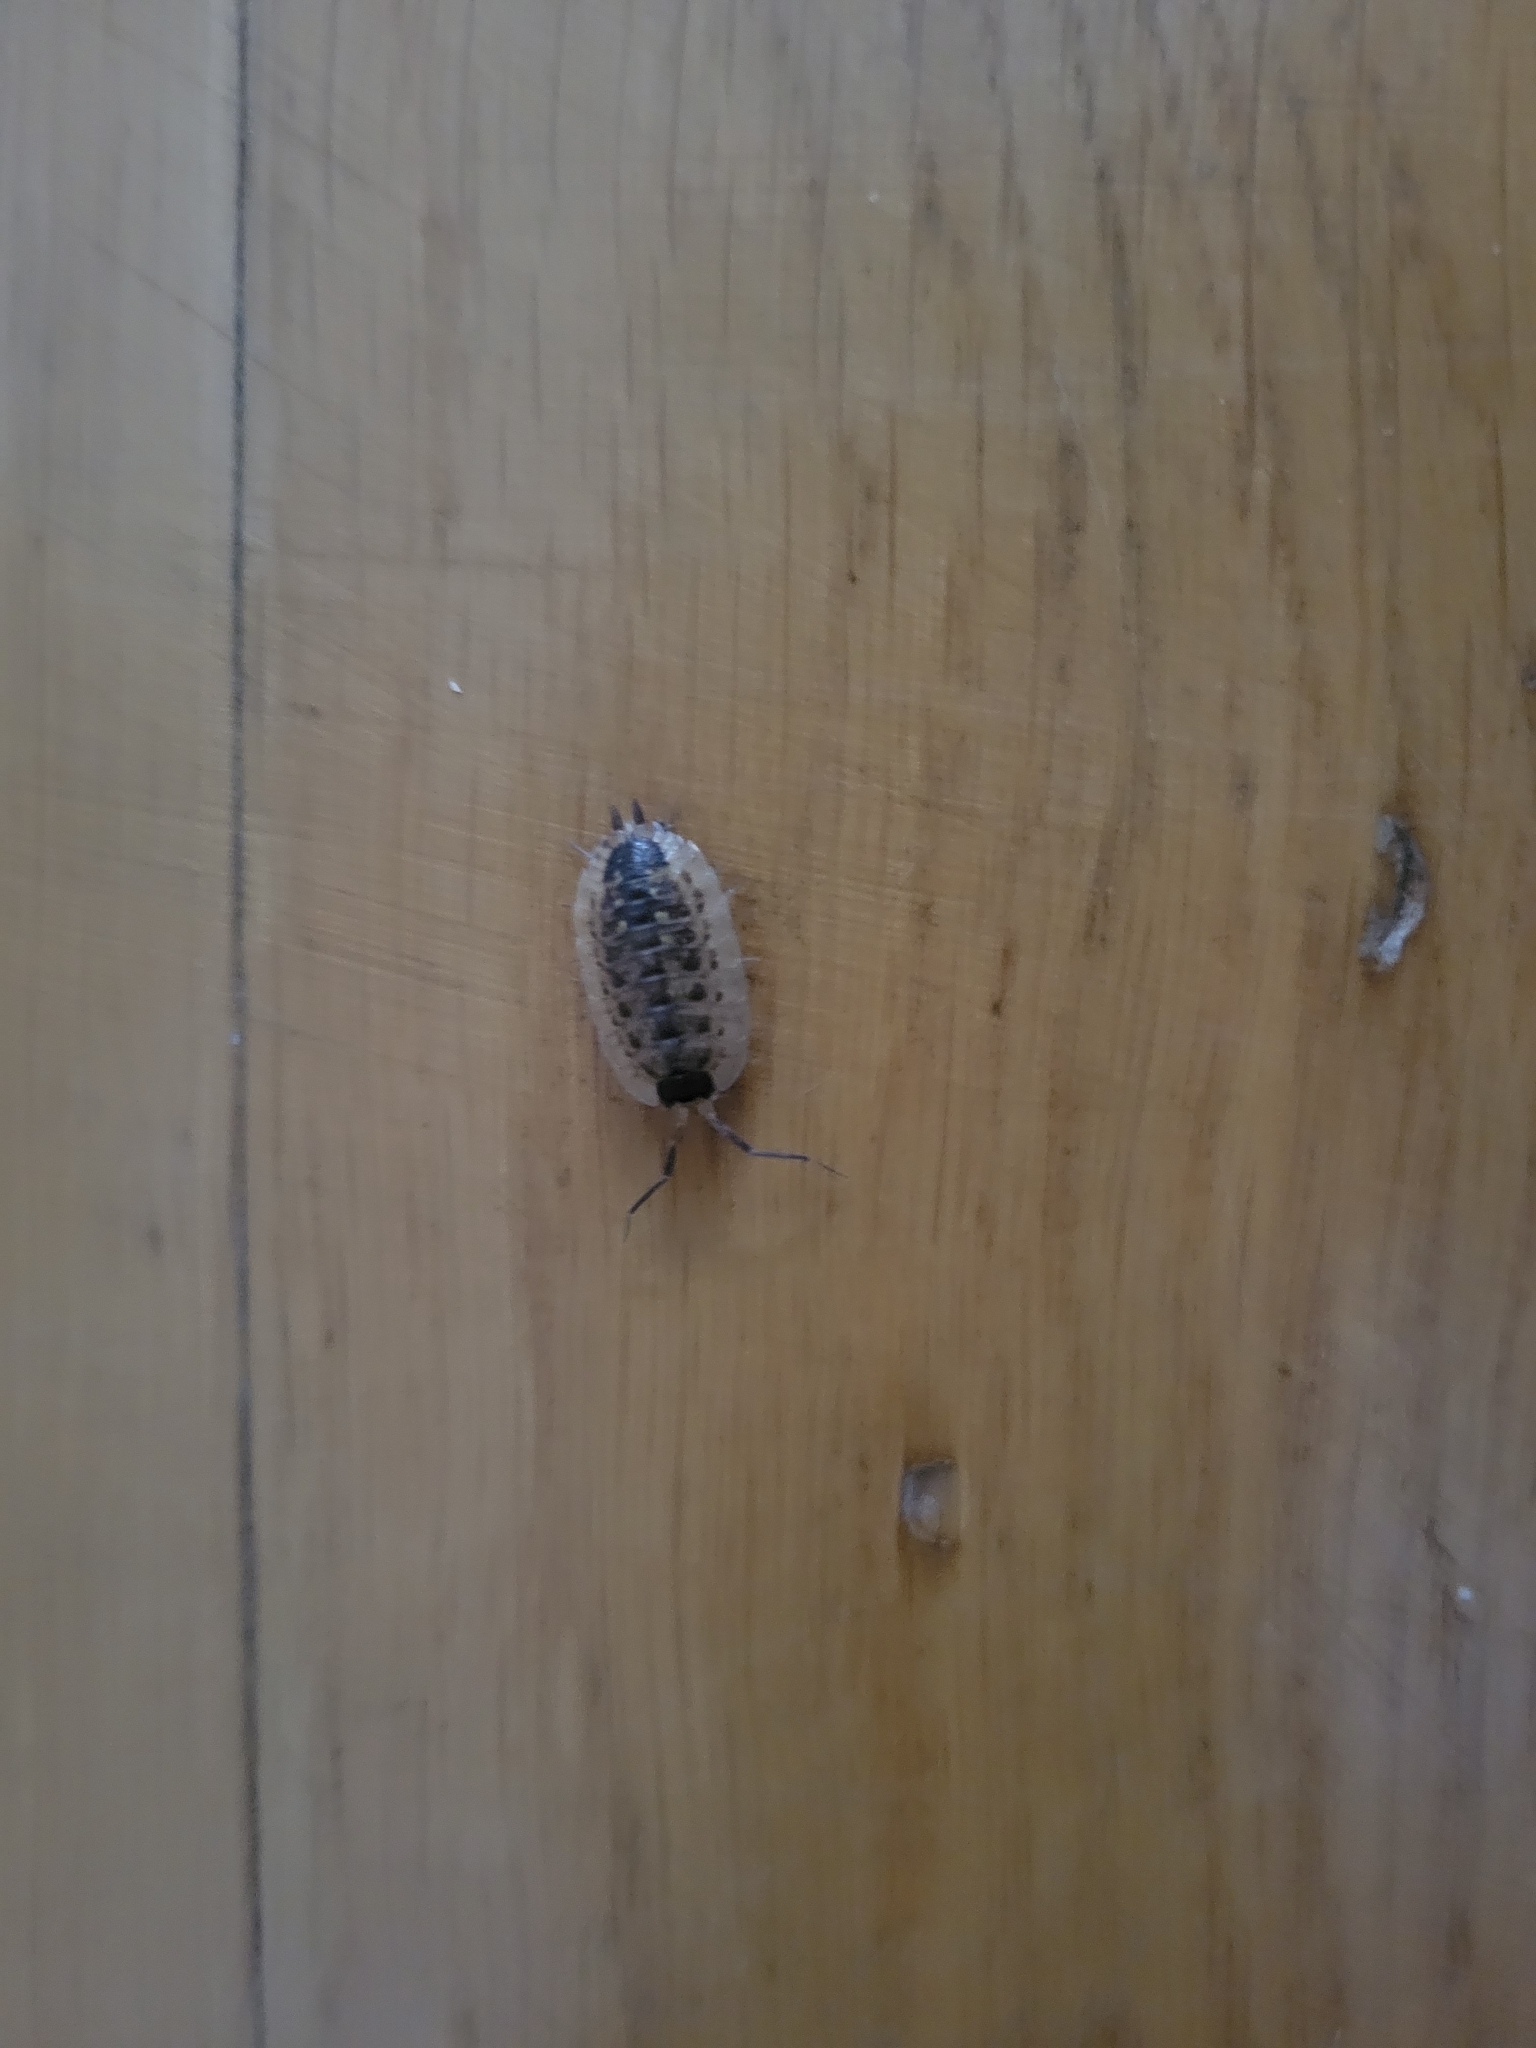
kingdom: Animalia
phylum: Arthropoda
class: Malacostraca
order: Isopoda
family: Porcellionidae
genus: Porcellio
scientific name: Porcellio spinicornis
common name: Painted woodlouse
